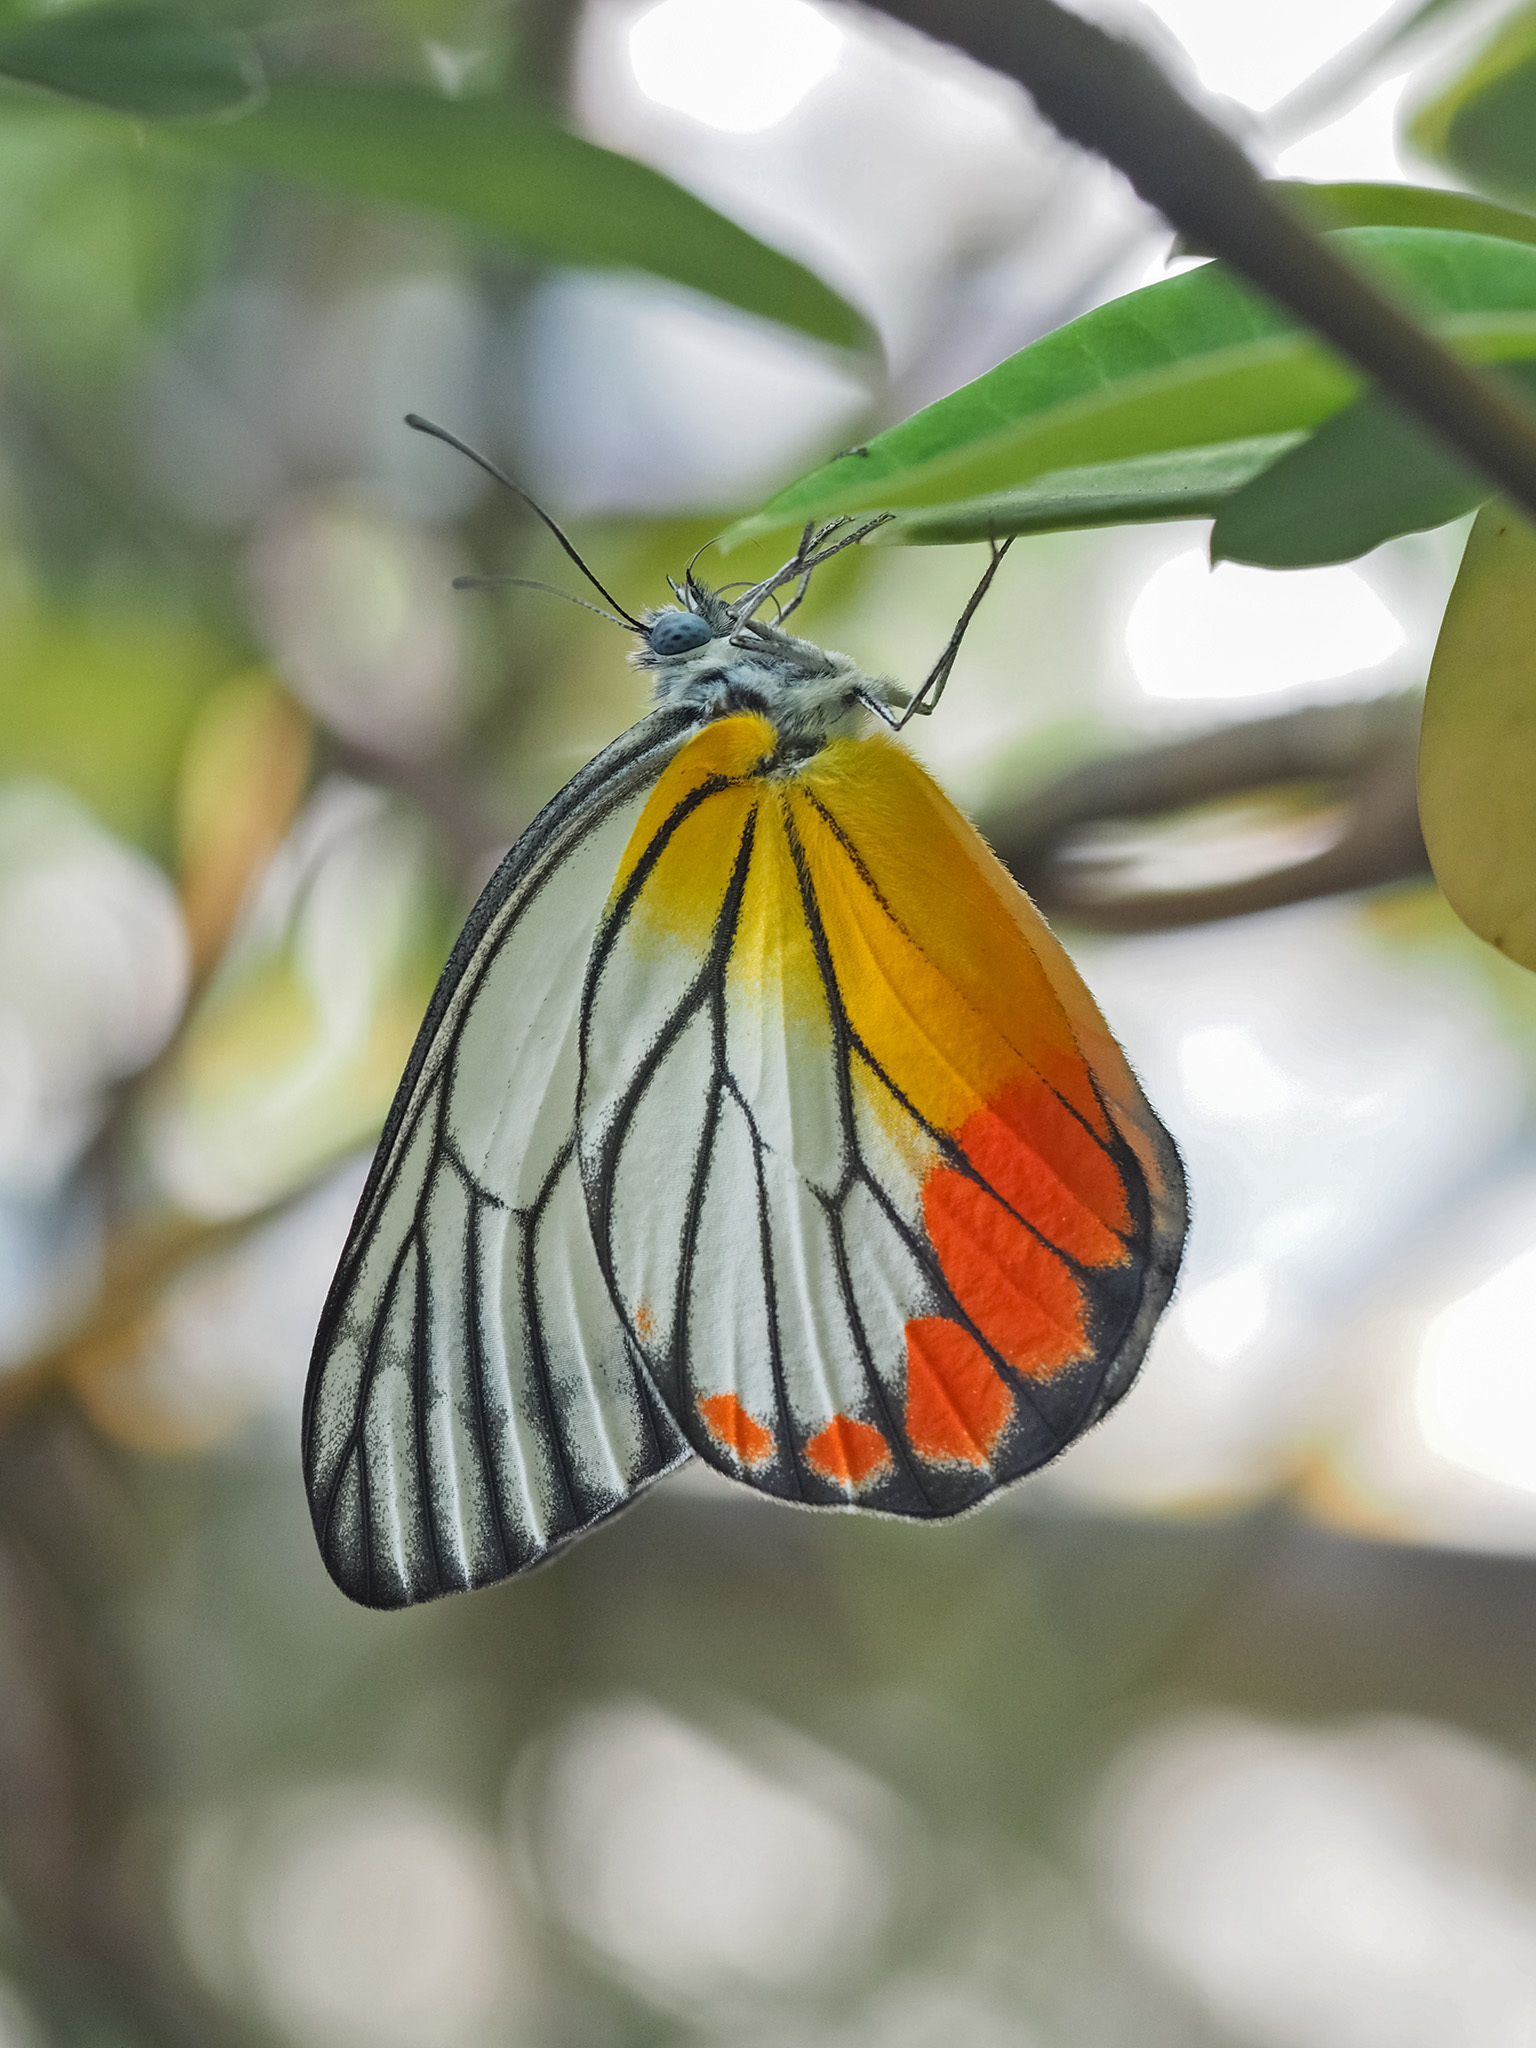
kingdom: Animalia
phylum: Arthropoda
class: Insecta
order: Lepidoptera
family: Pieridae
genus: Delias
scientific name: Delias hyparete
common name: Painted jezebel
